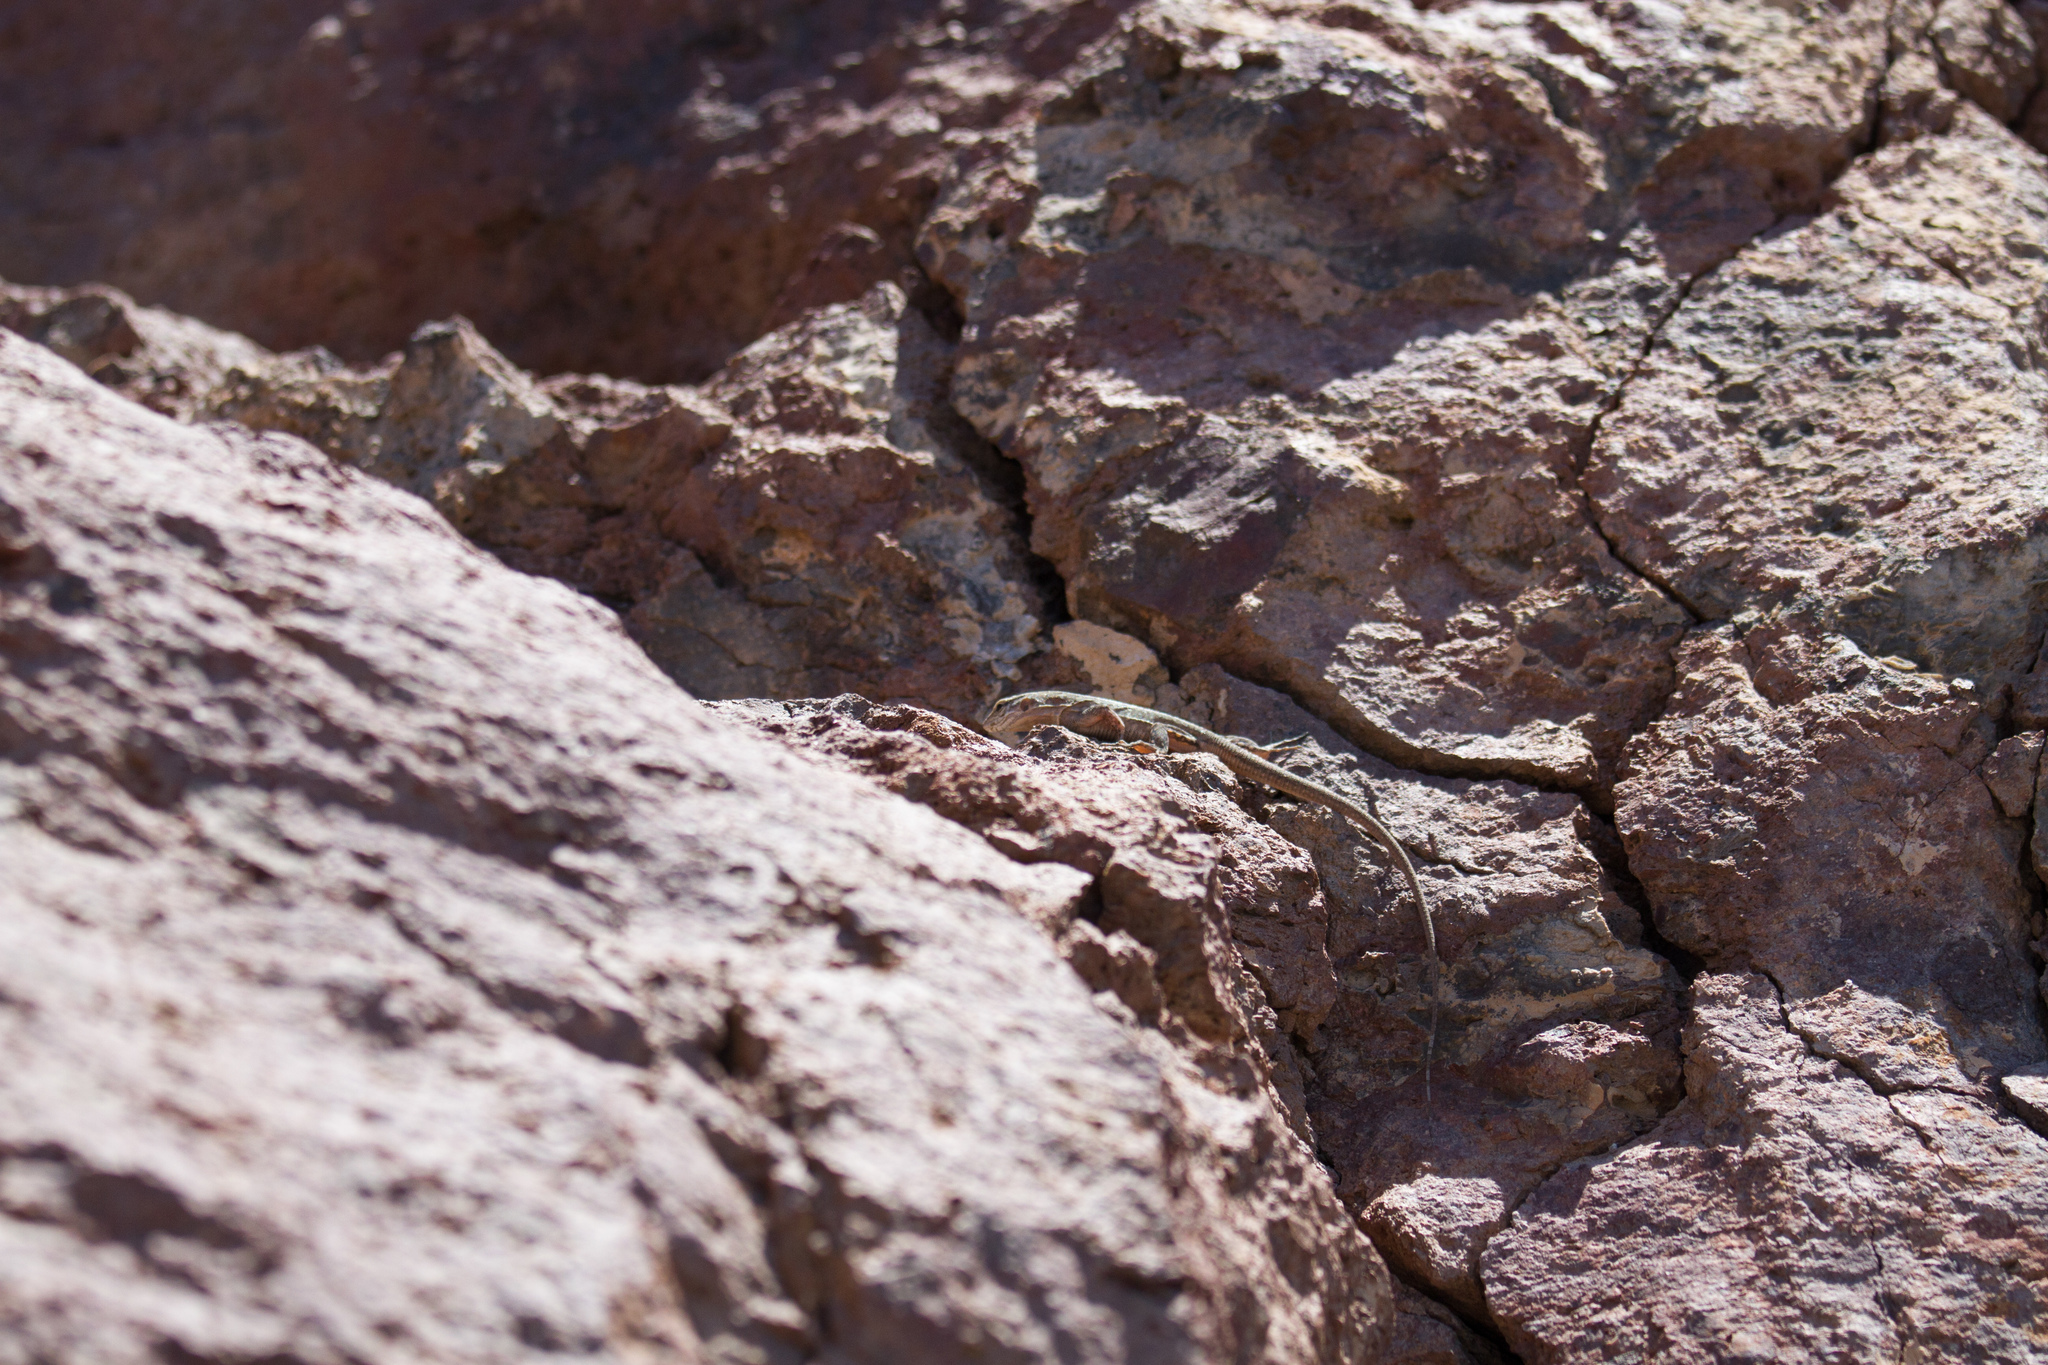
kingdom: Animalia
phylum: Chordata
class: Squamata
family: Lacertidae
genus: Gallotia
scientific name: Gallotia stehlini
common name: Gran canaria giant lizard
